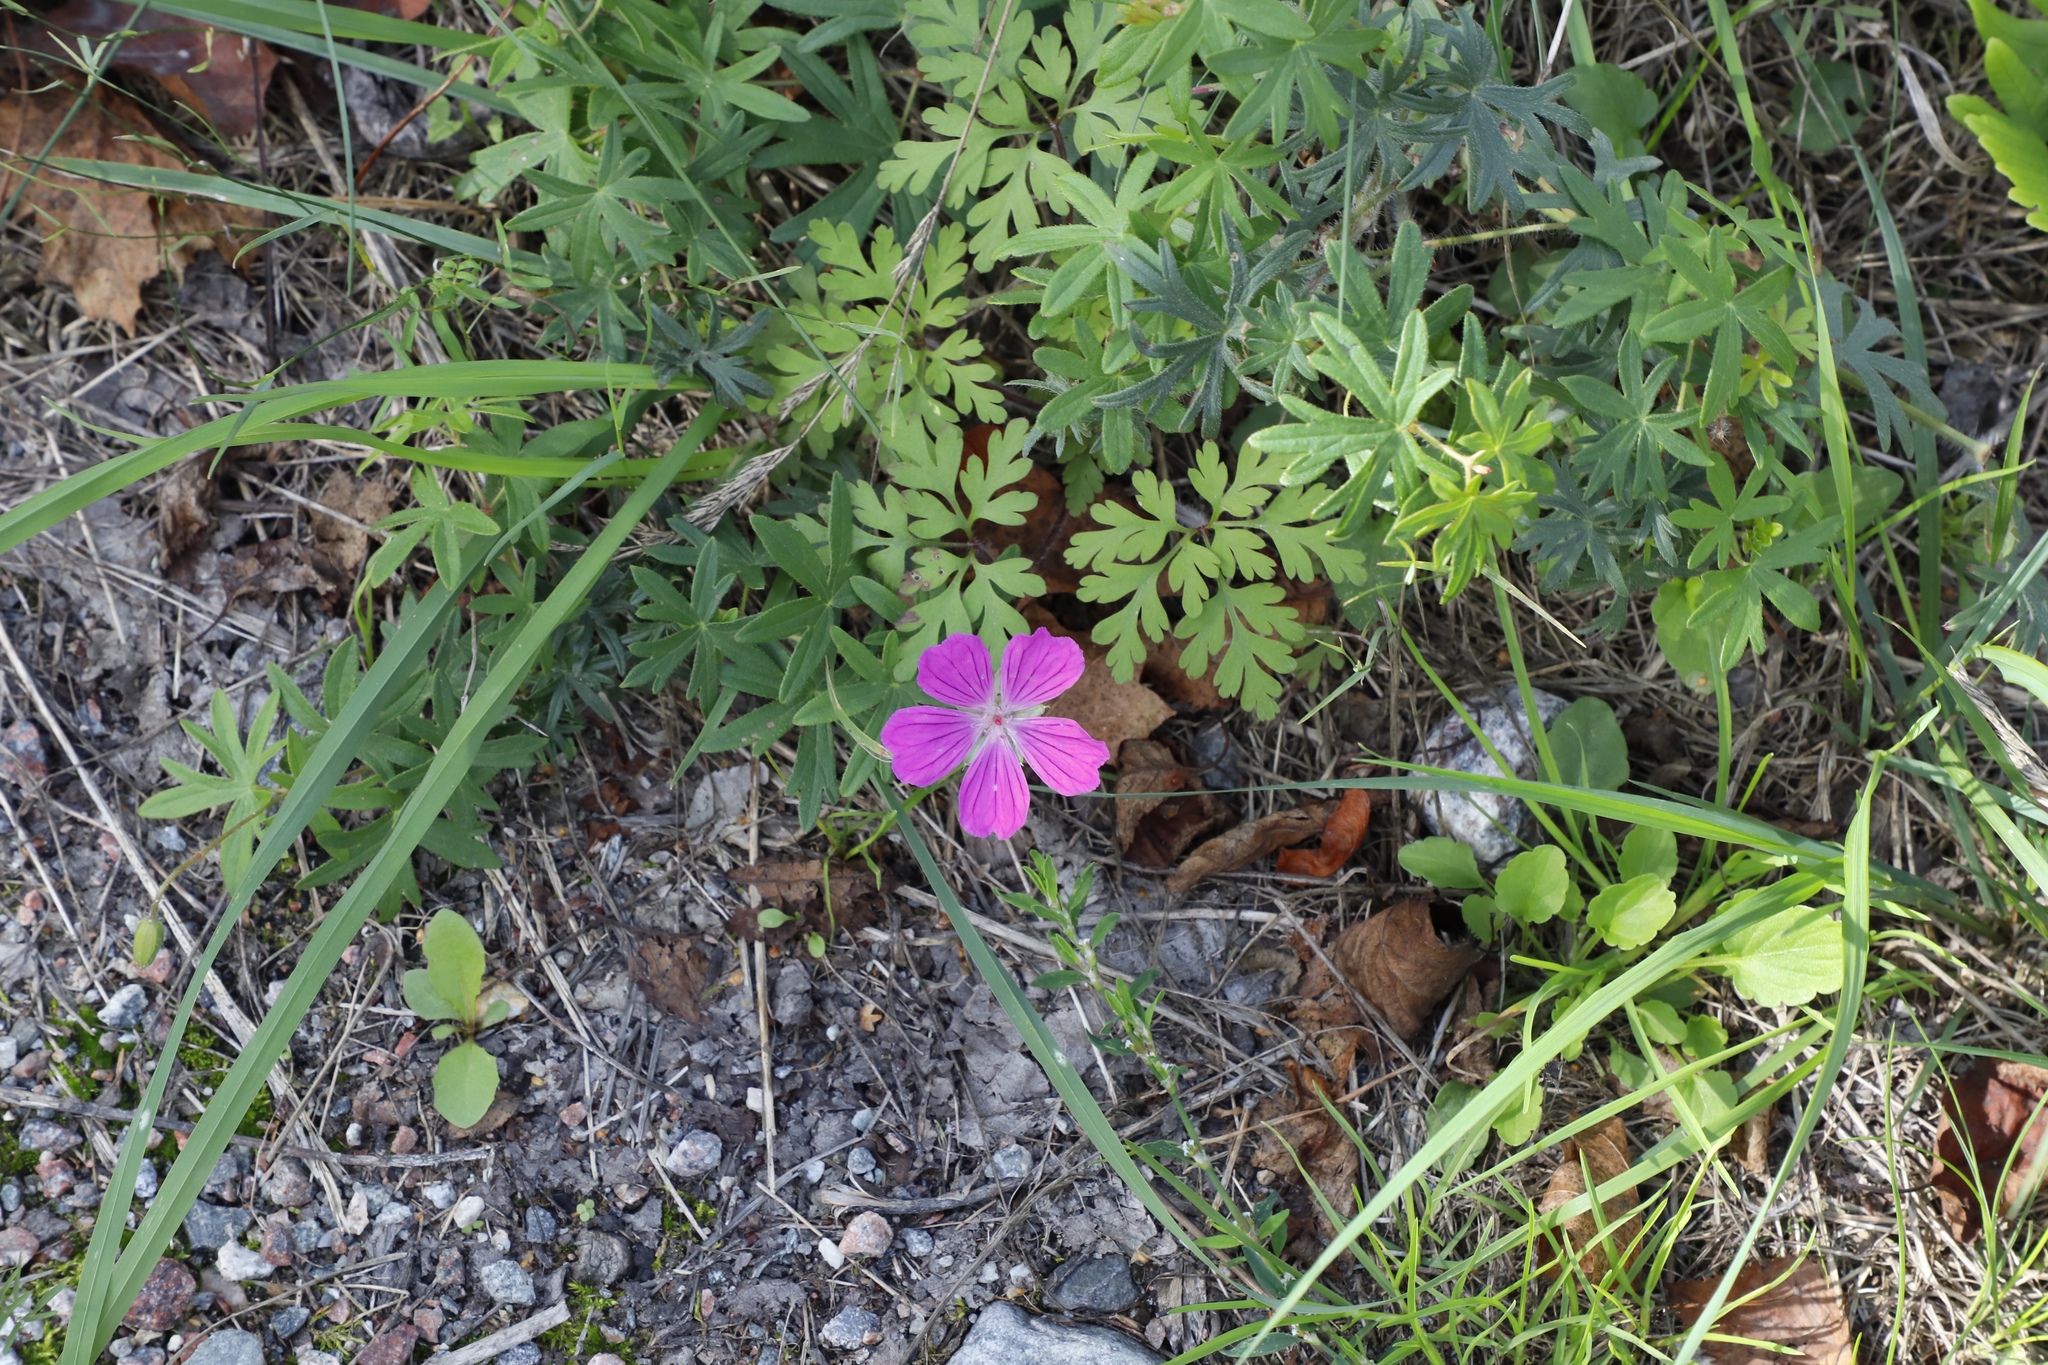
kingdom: Plantae
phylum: Tracheophyta
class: Magnoliopsida
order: Geraniales
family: Geraniaceae
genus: Geranium
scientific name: Geranium robertianum
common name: Herb-robert
